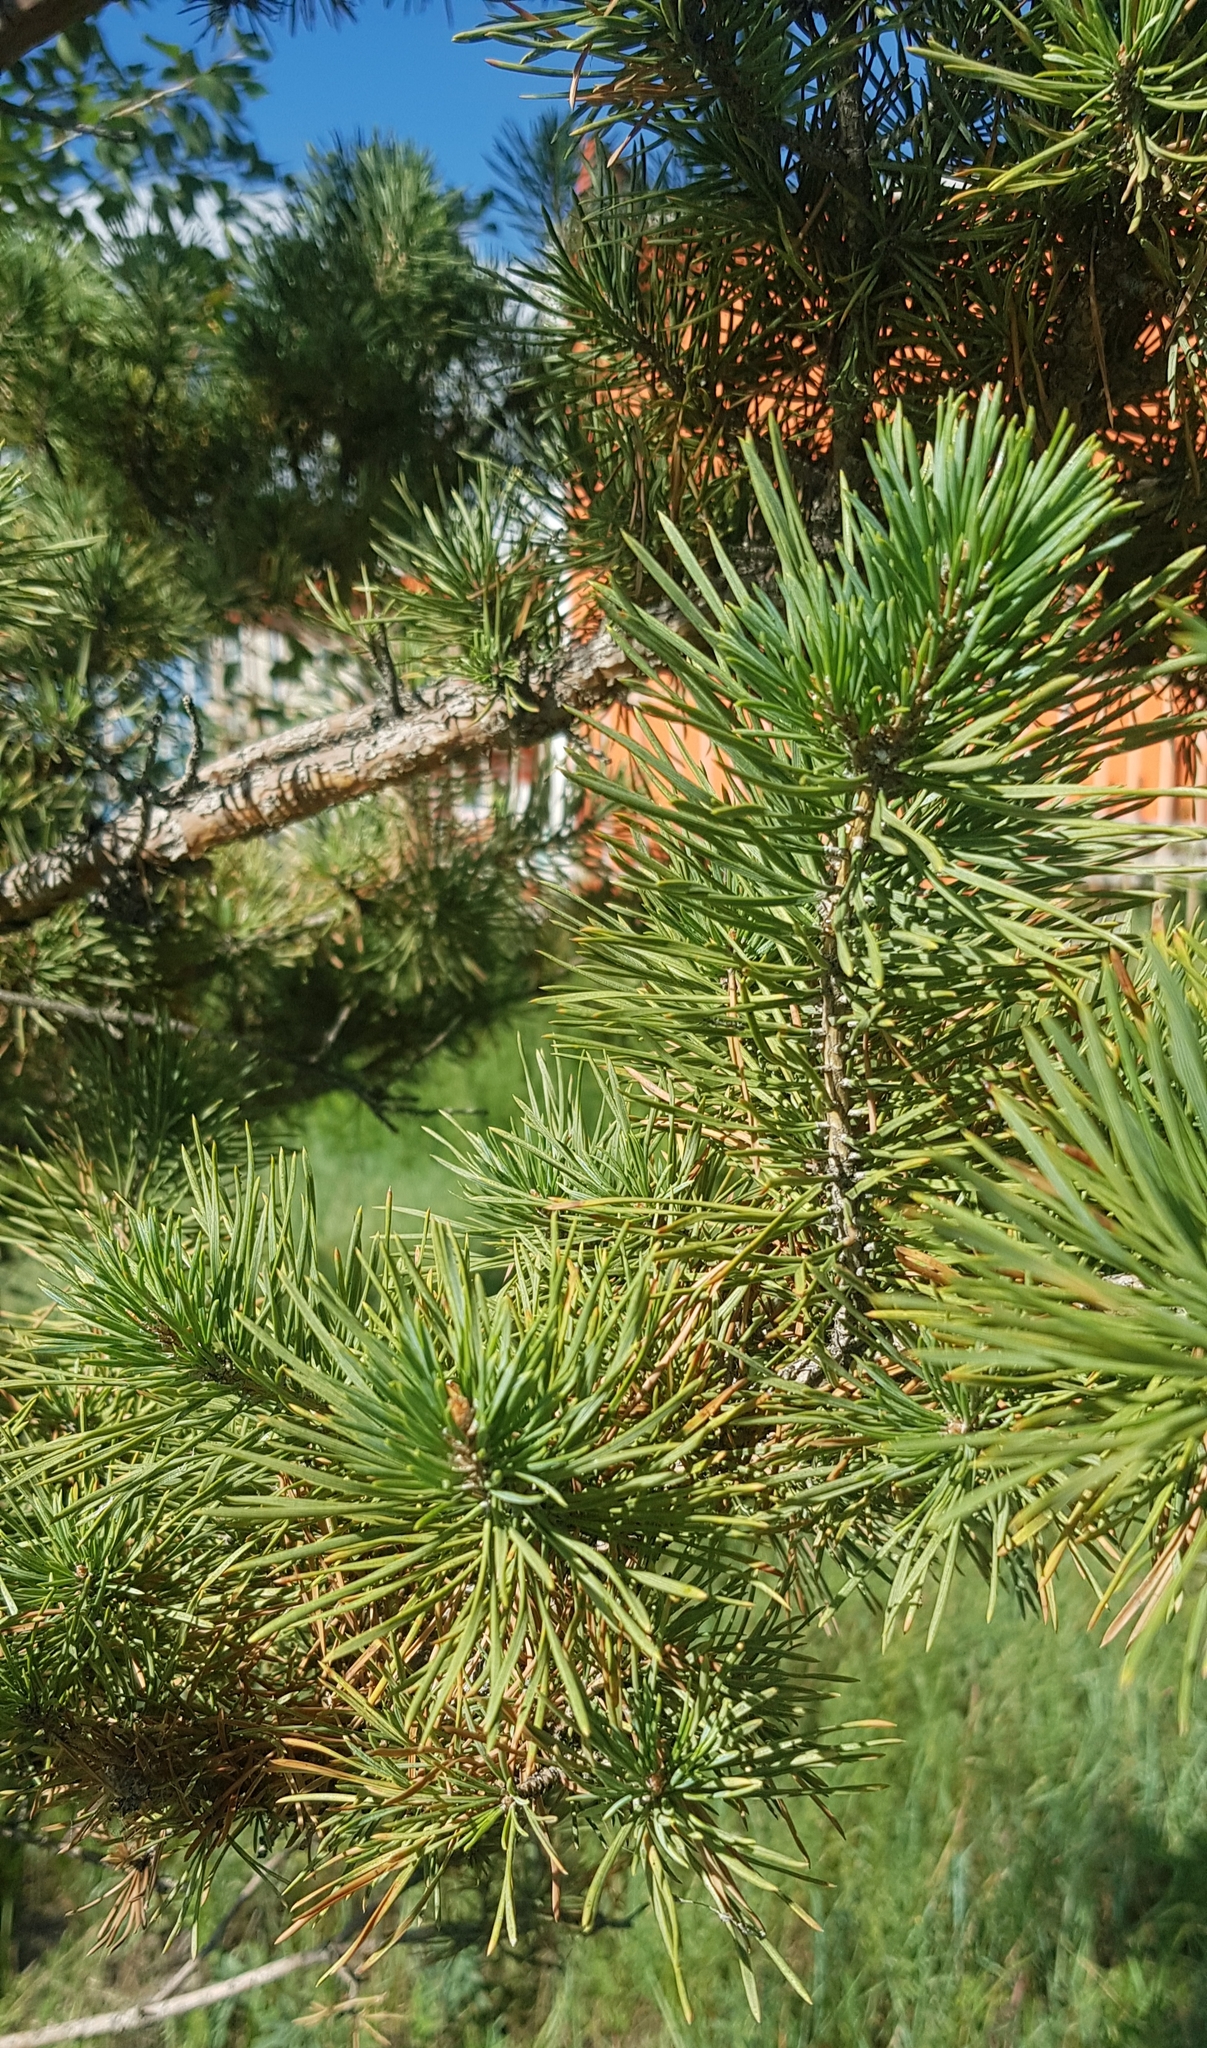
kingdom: Plantae
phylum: Tracheophyta
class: Pinopsida
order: Pinales
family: Pinaceae
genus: Pinus
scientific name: Pinus sylvestris
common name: Scots pine
